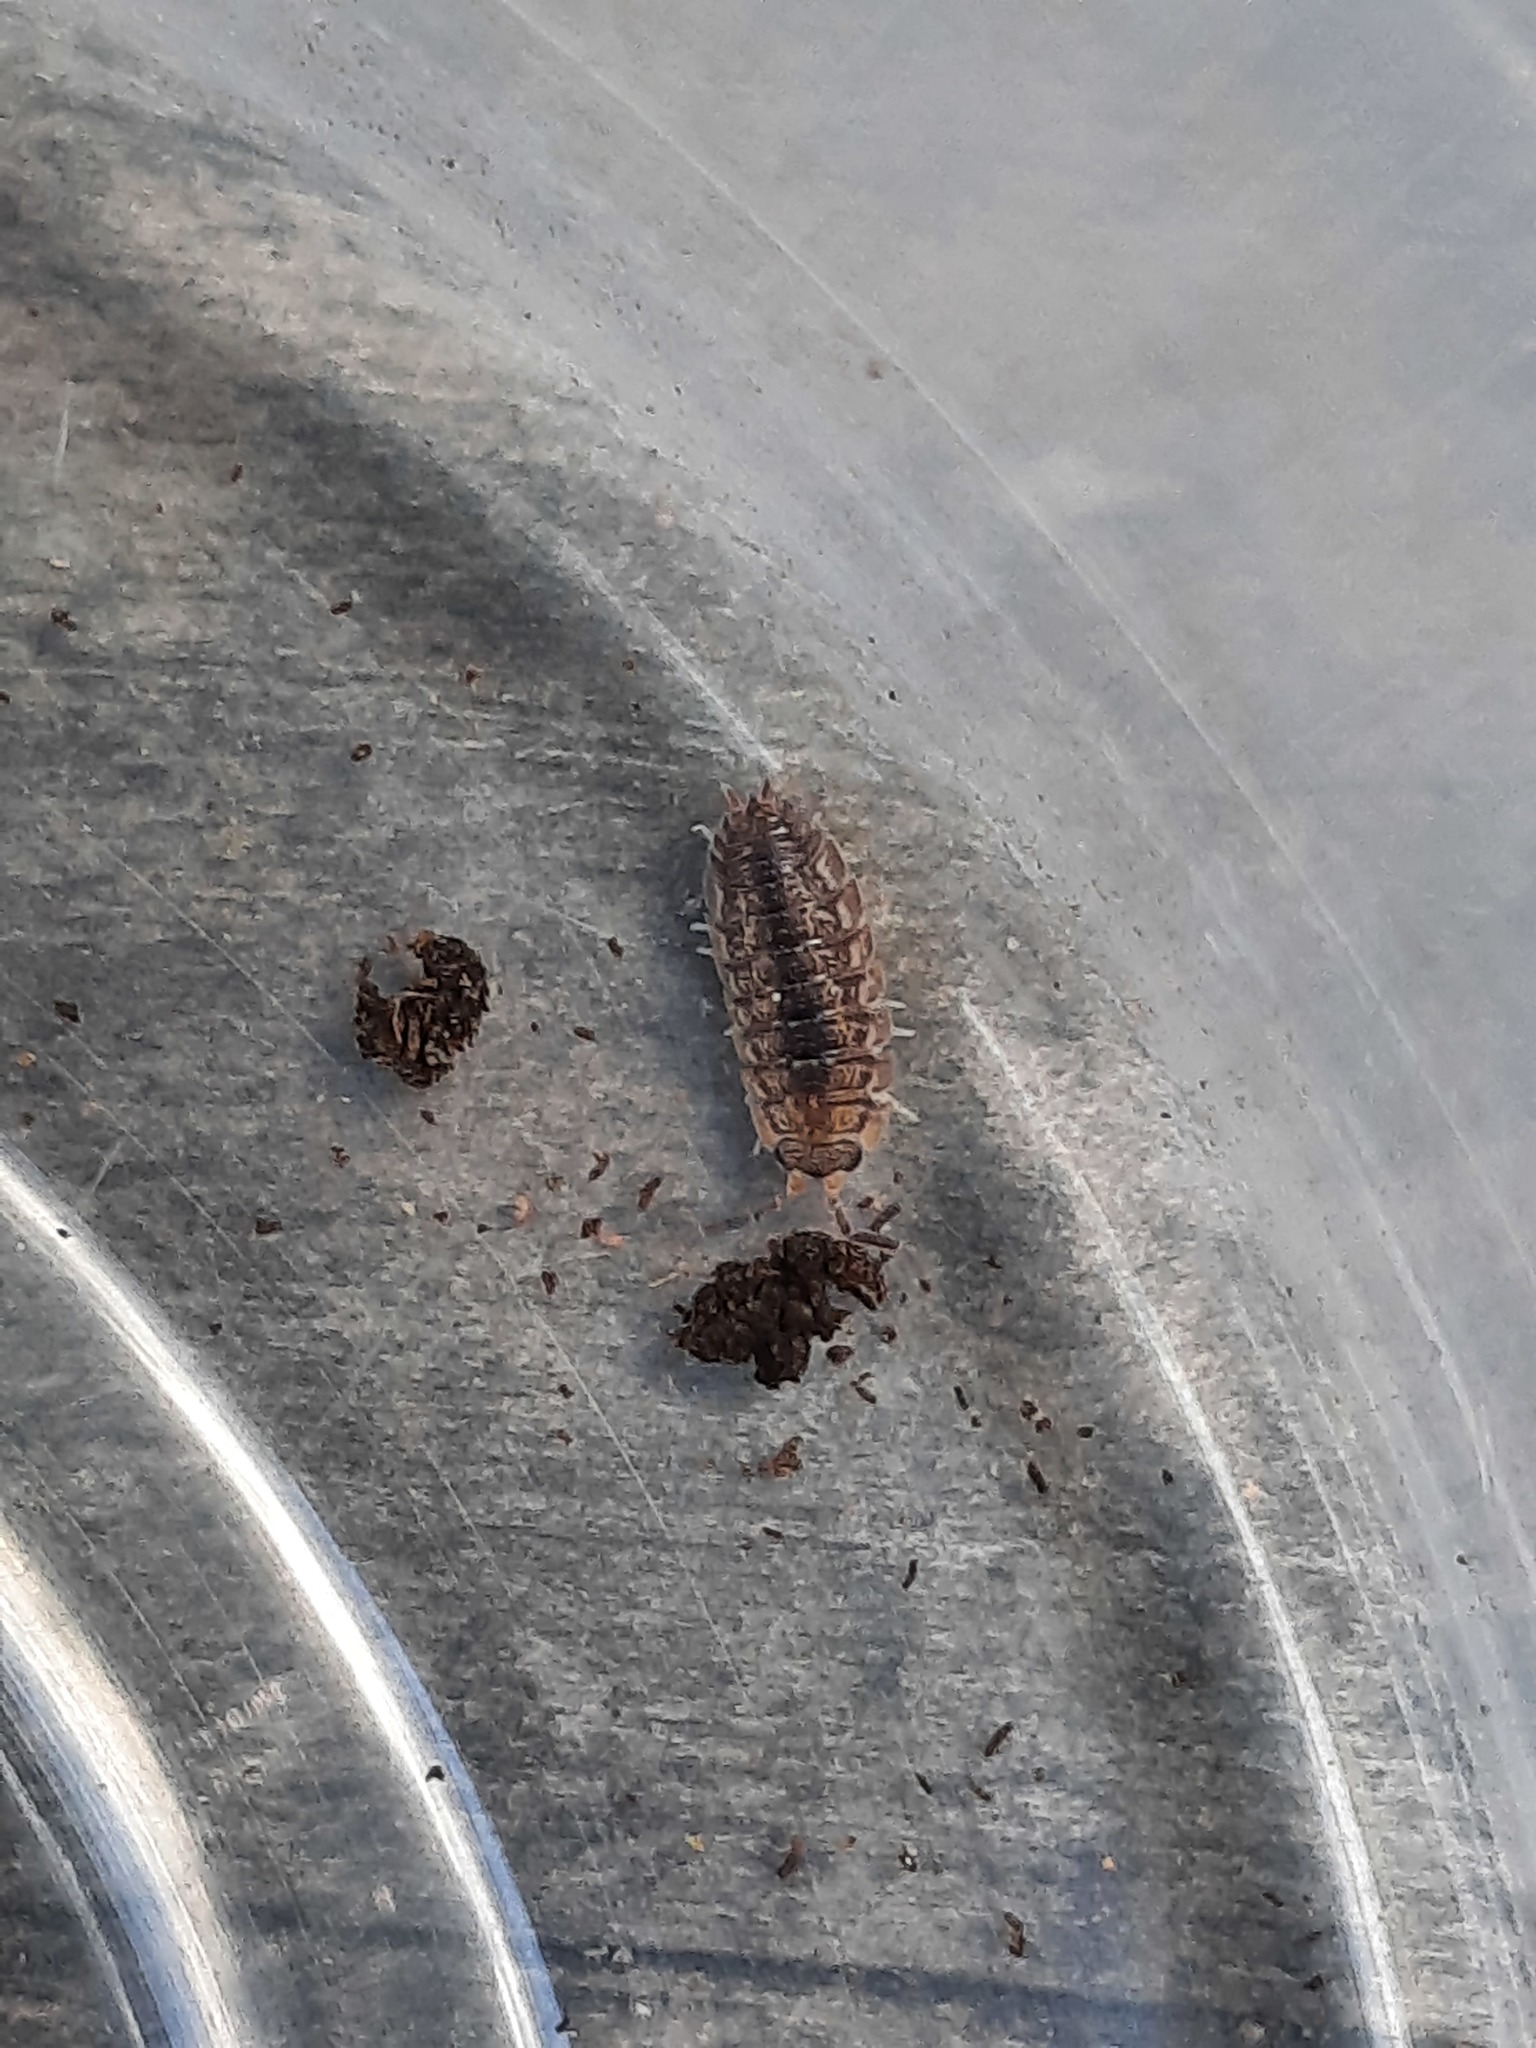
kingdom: Animalia
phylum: Arthropoda
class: Malacostraca
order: Isopoda
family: Porcellionidae
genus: Porcellio
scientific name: Porcellio scaber
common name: Common rough woodlouse
